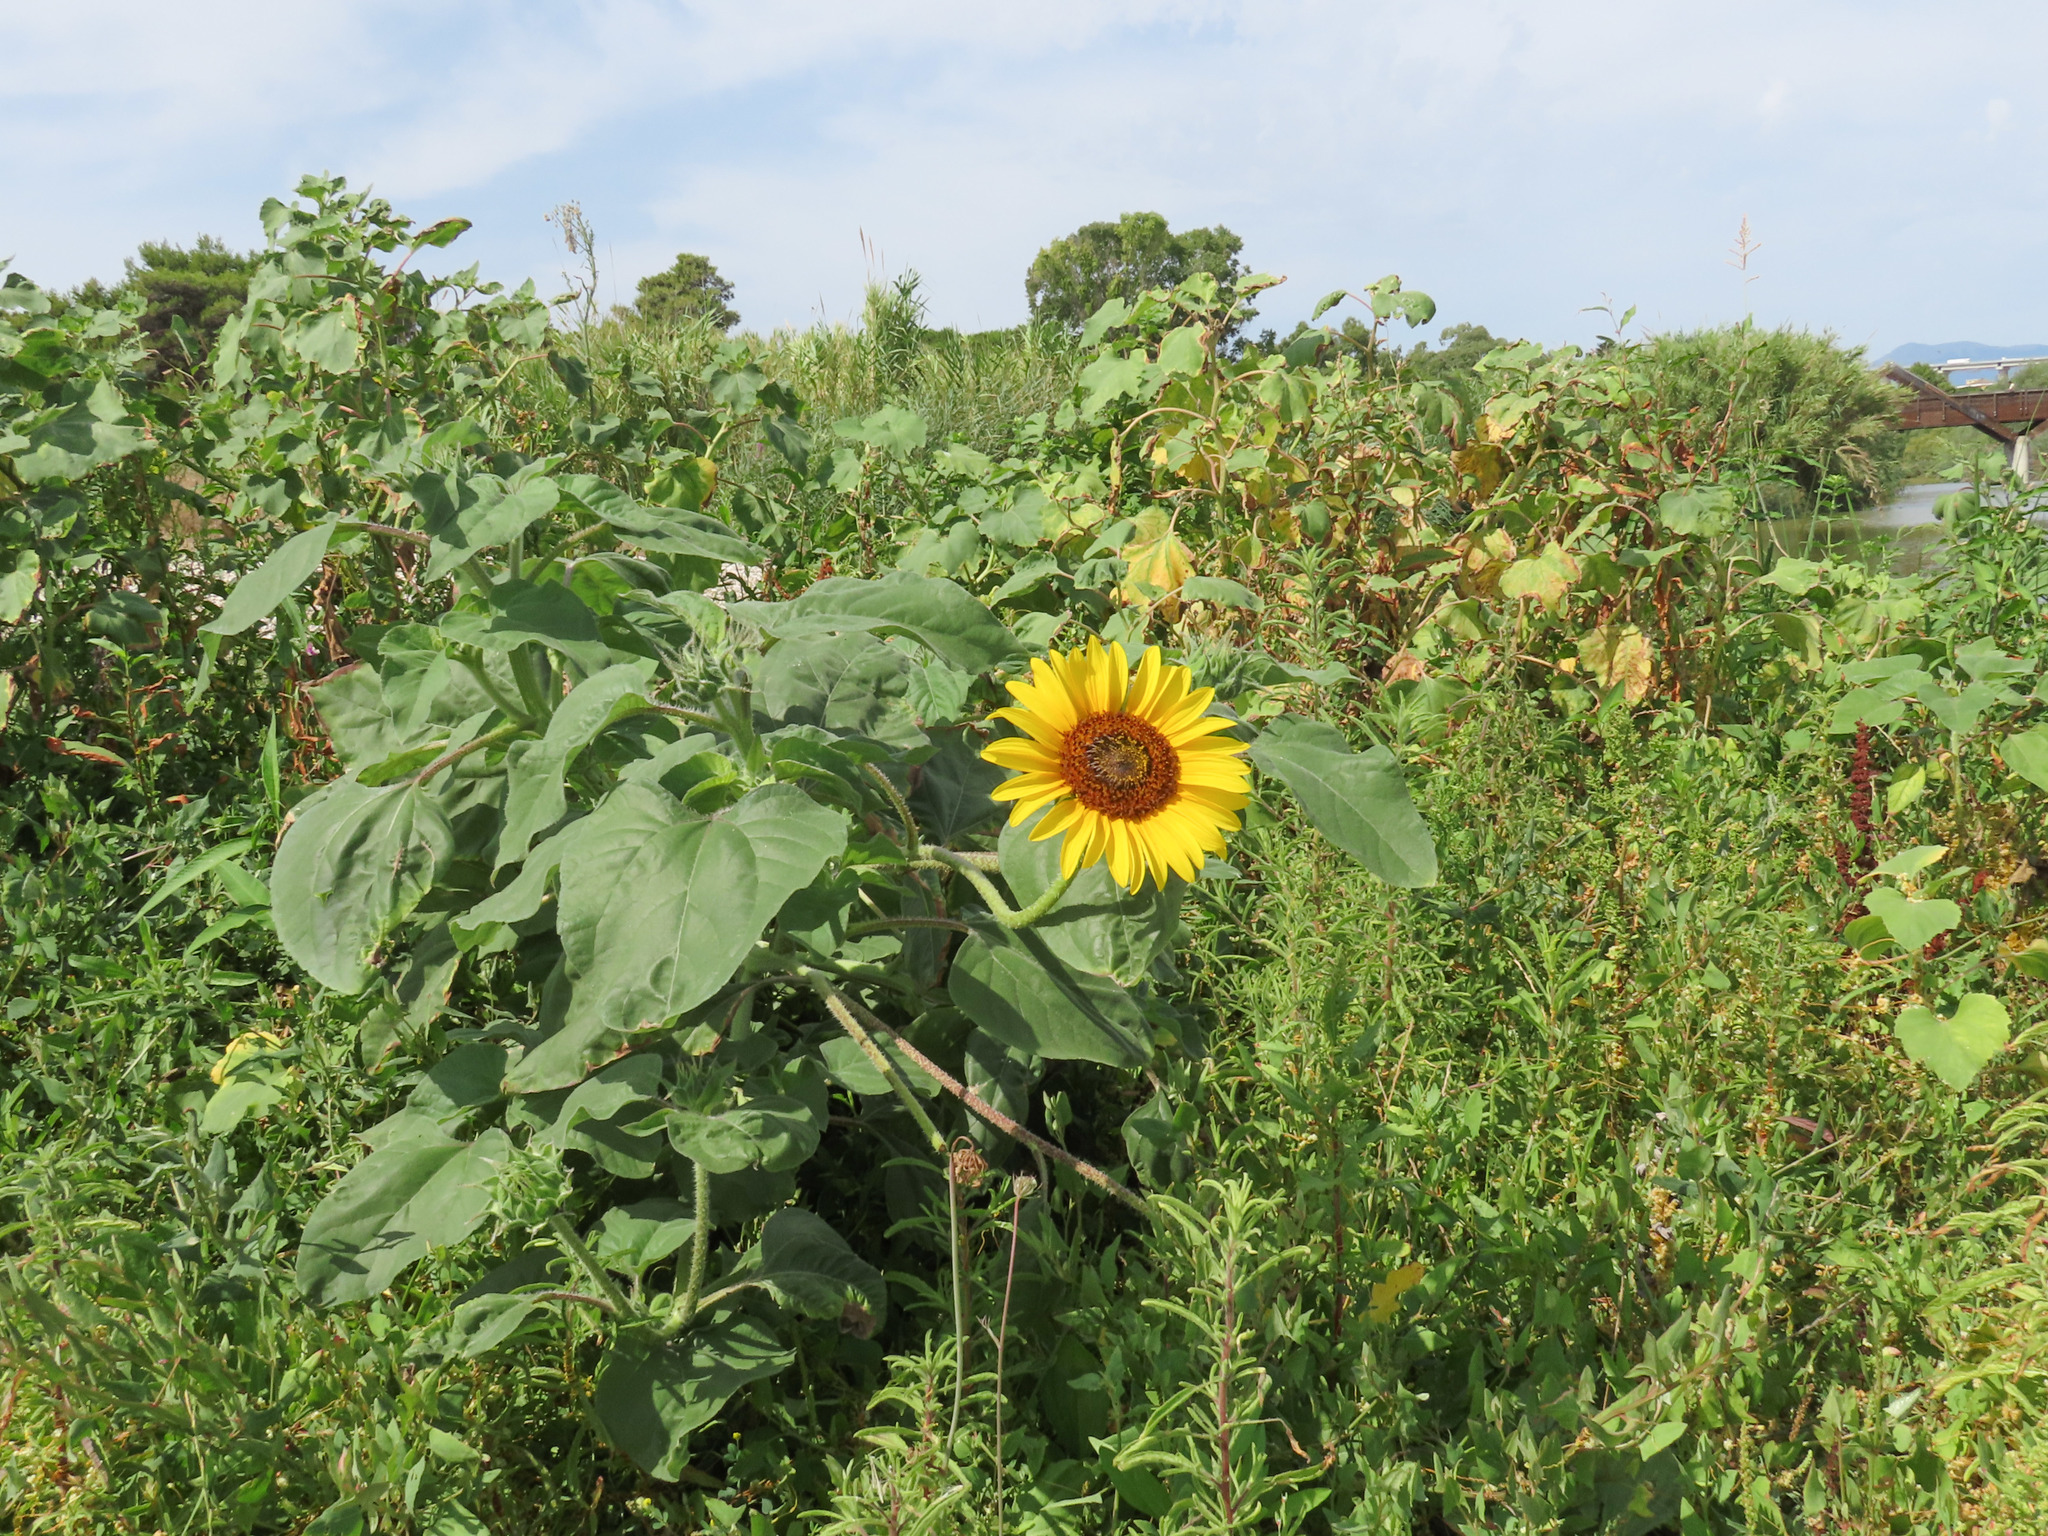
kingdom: Plantae
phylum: Tracheophyta
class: Magnoliopsida
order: Asterales
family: Asteraceae
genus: Helianthus
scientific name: Helianthus annuus
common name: Sunflower
